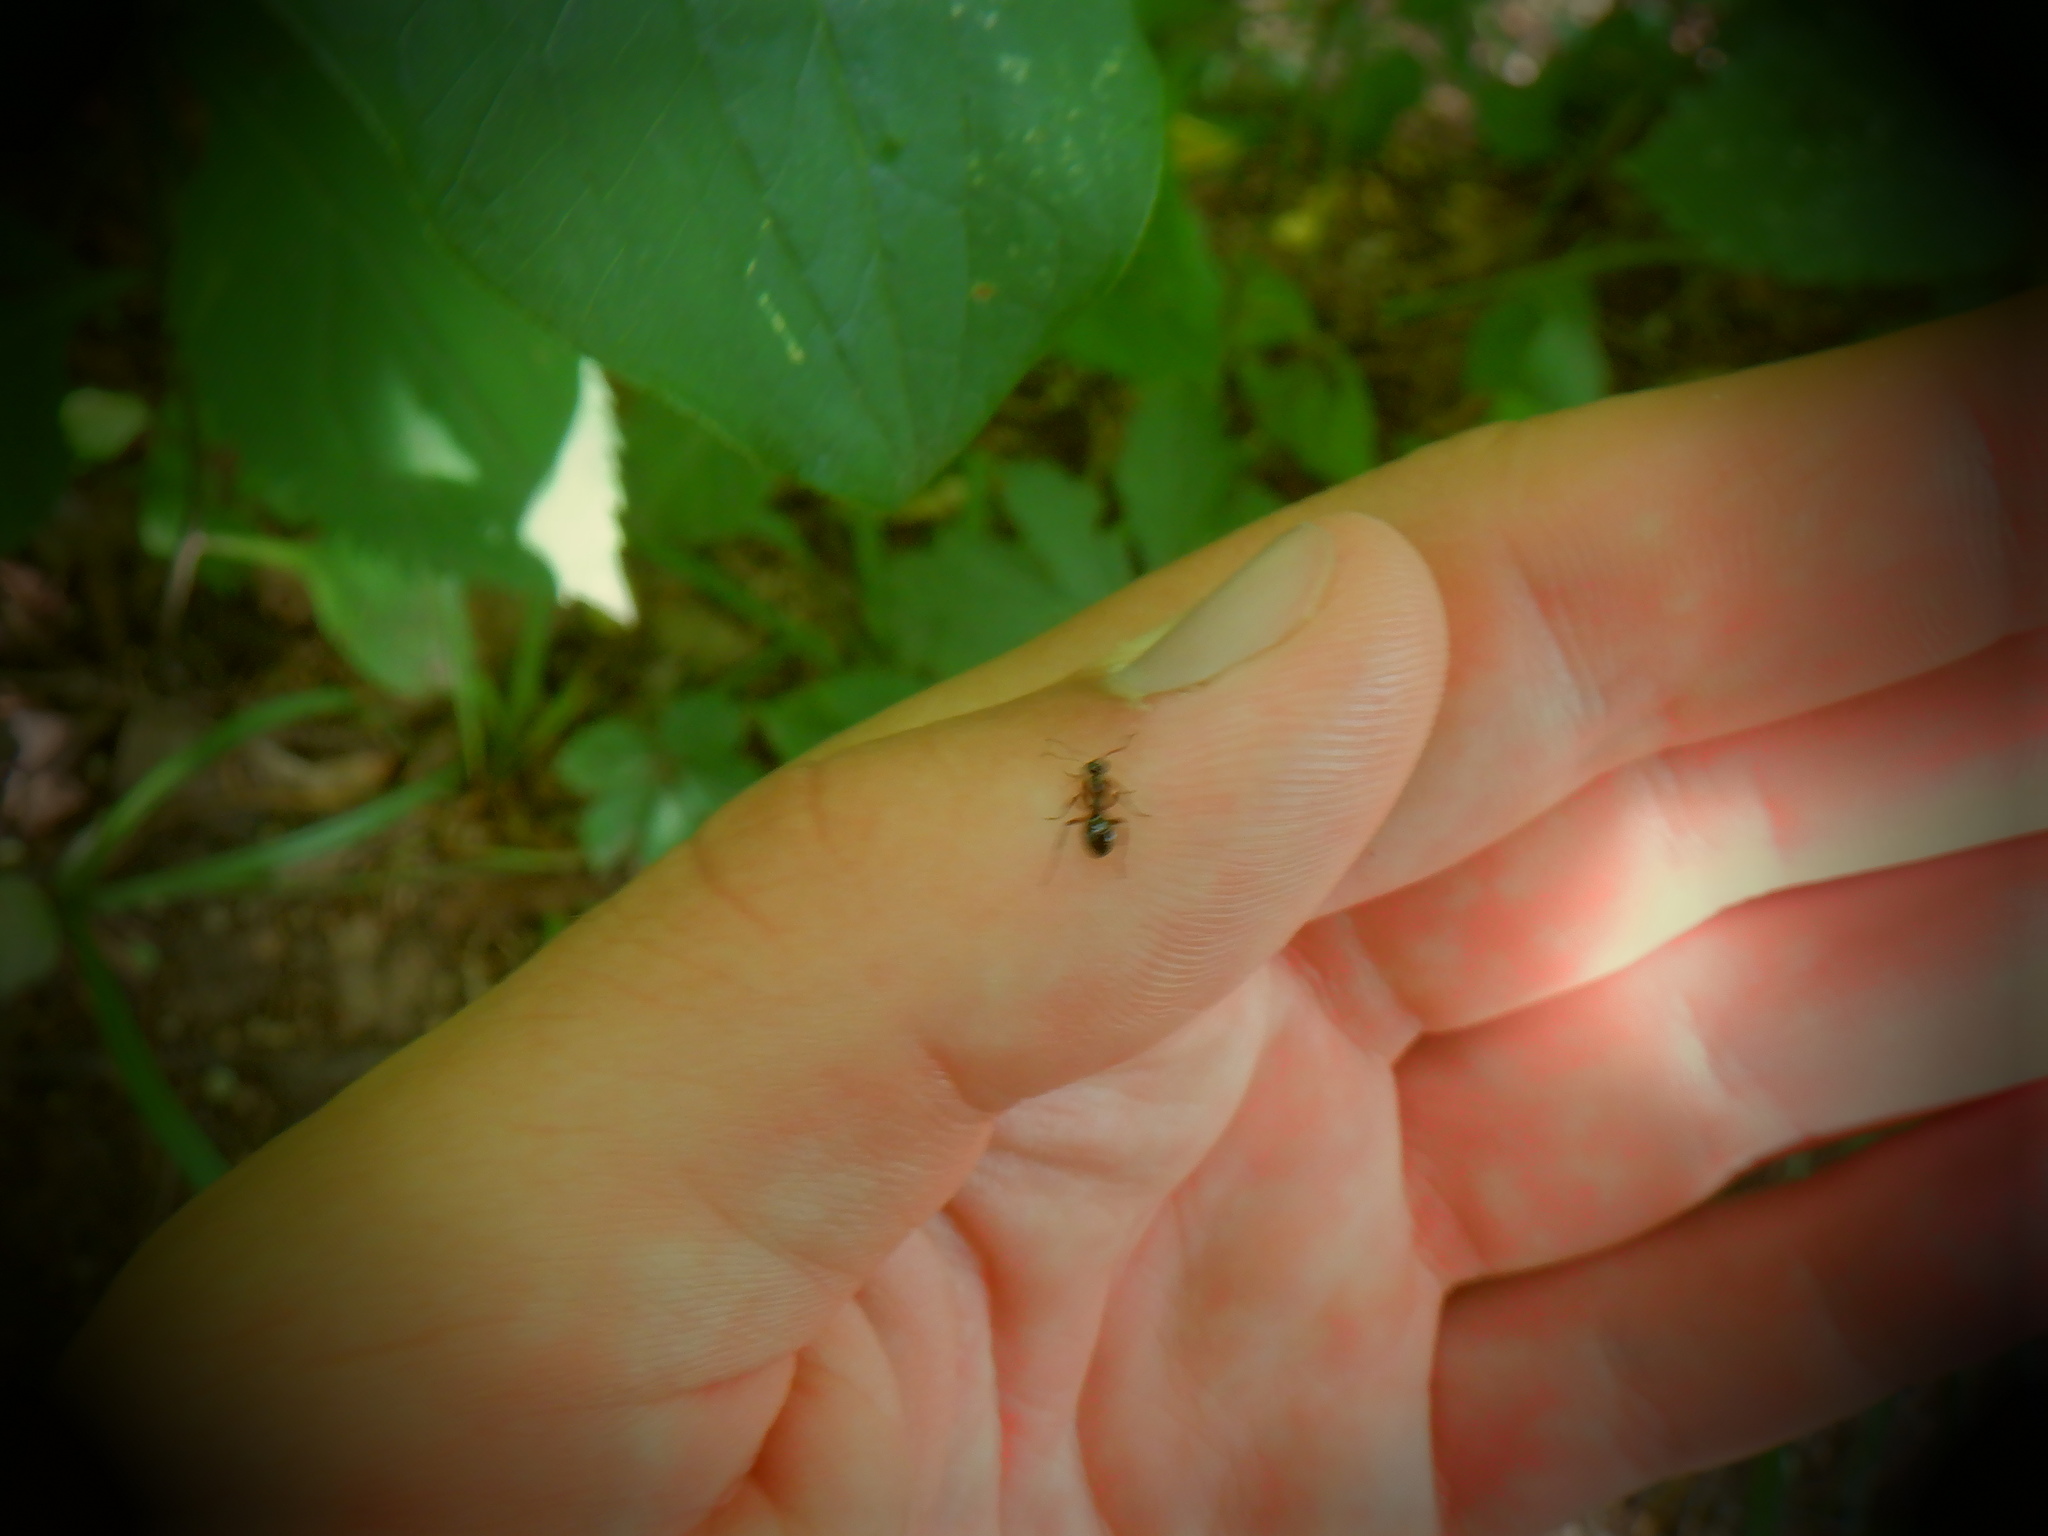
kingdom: Animalia
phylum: Arthropoda
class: Insecta
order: Hymenoptera
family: Formicidae
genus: Formica
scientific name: Formica
